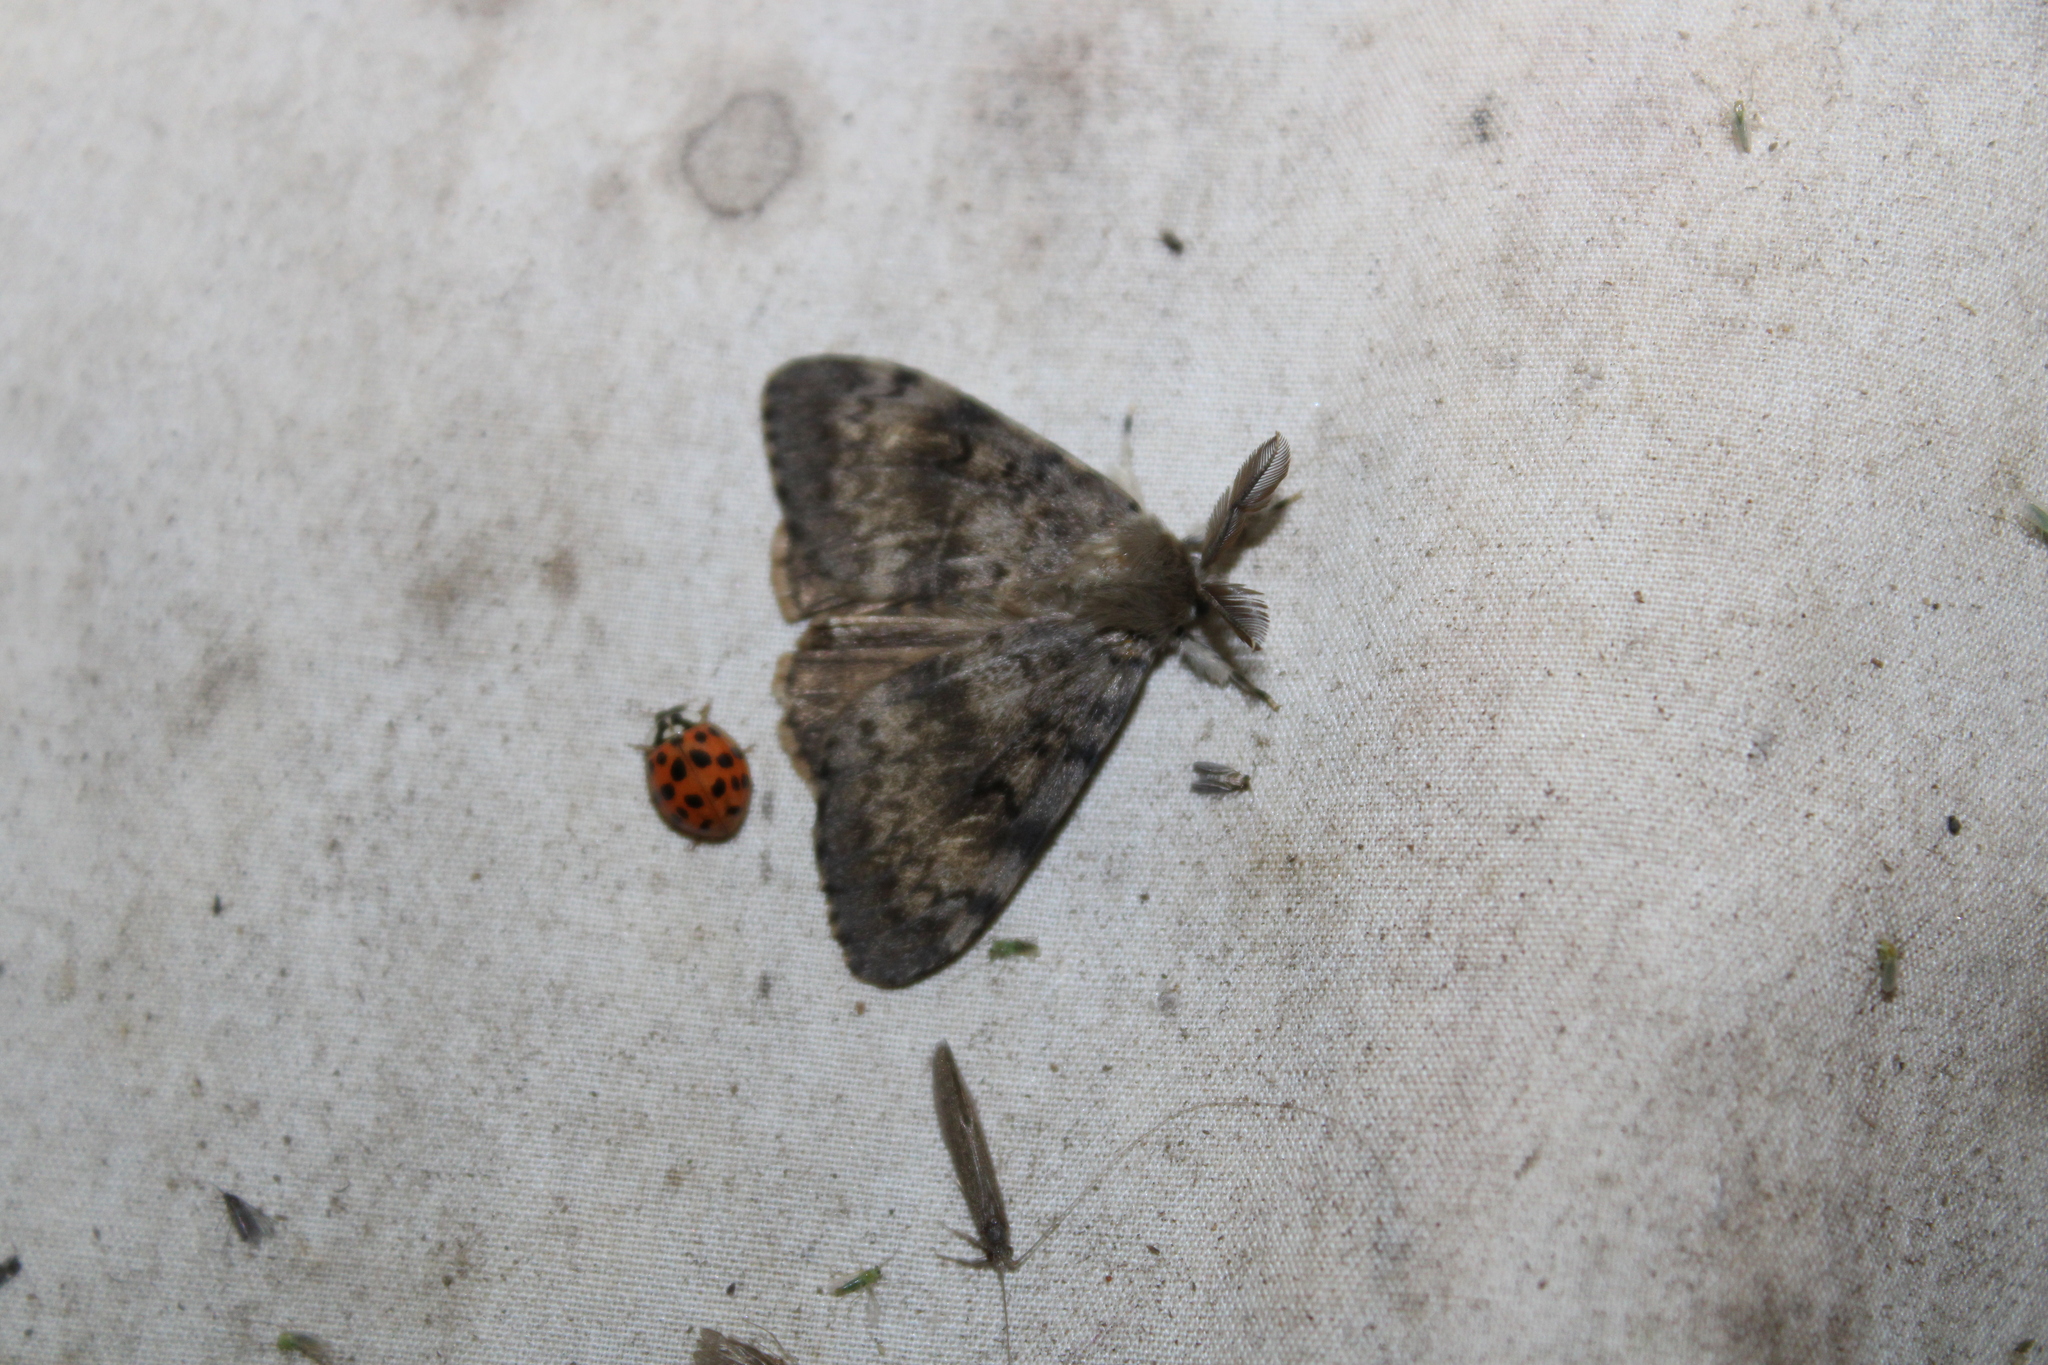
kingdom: Animalia
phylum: Arthropoda
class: Insecta
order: Lepidoptera
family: Erebidae
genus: Lymantria
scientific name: Lymantria dispar
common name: Gypsy moth
